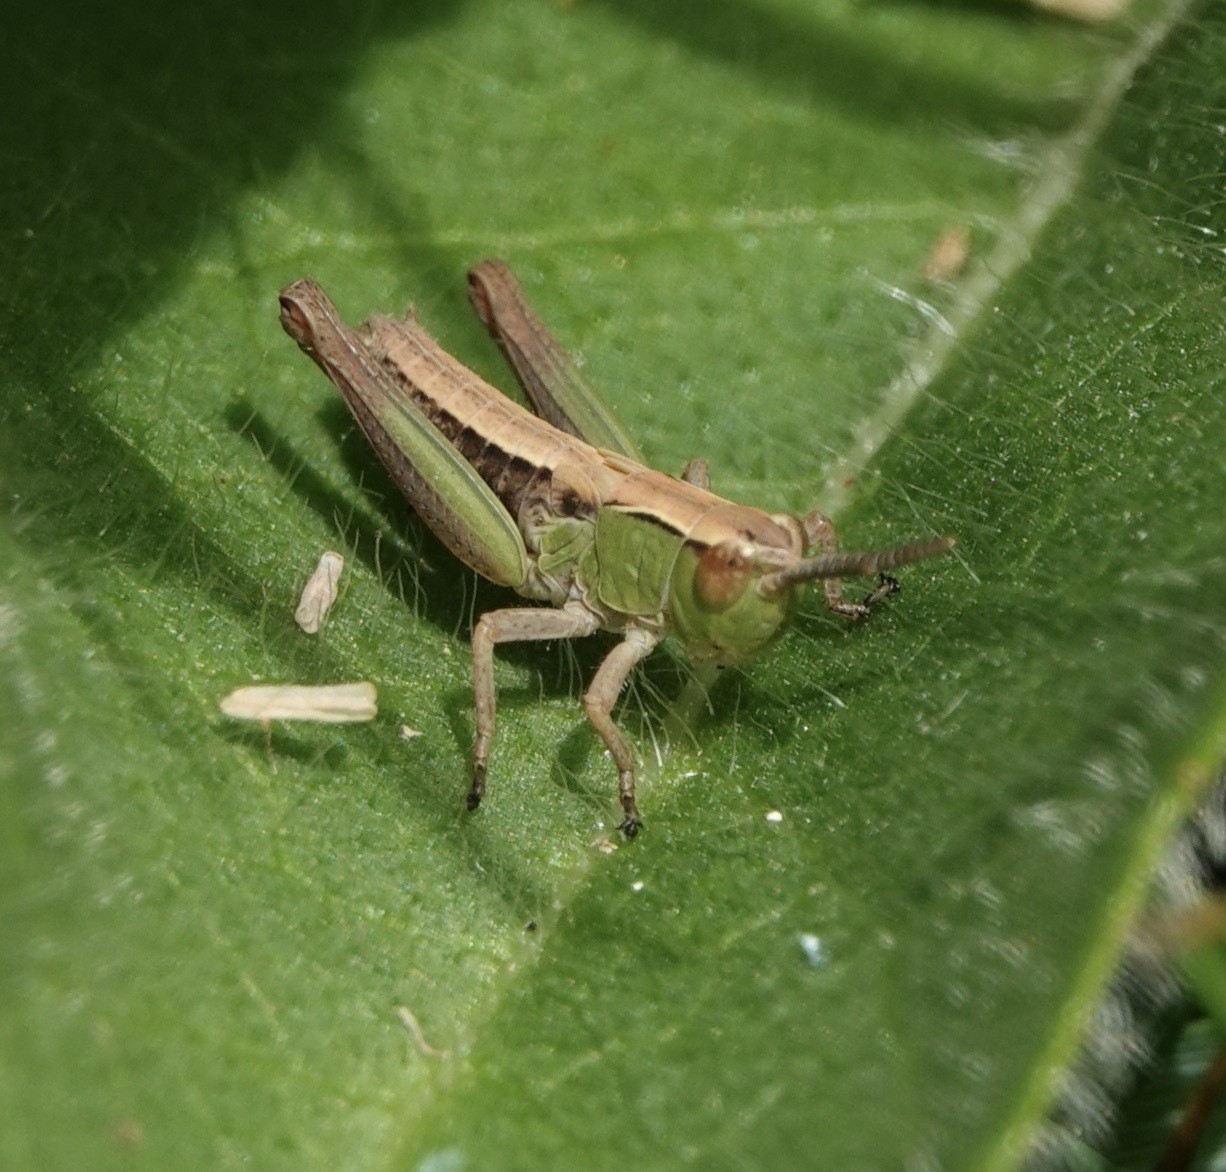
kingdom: Animalia
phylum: Arthropoda
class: Insecta
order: Orthoptera
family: Acrididae
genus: Pseudochorthippus
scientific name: Pseudochorthippus parallelus
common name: Meadow grasshopper
